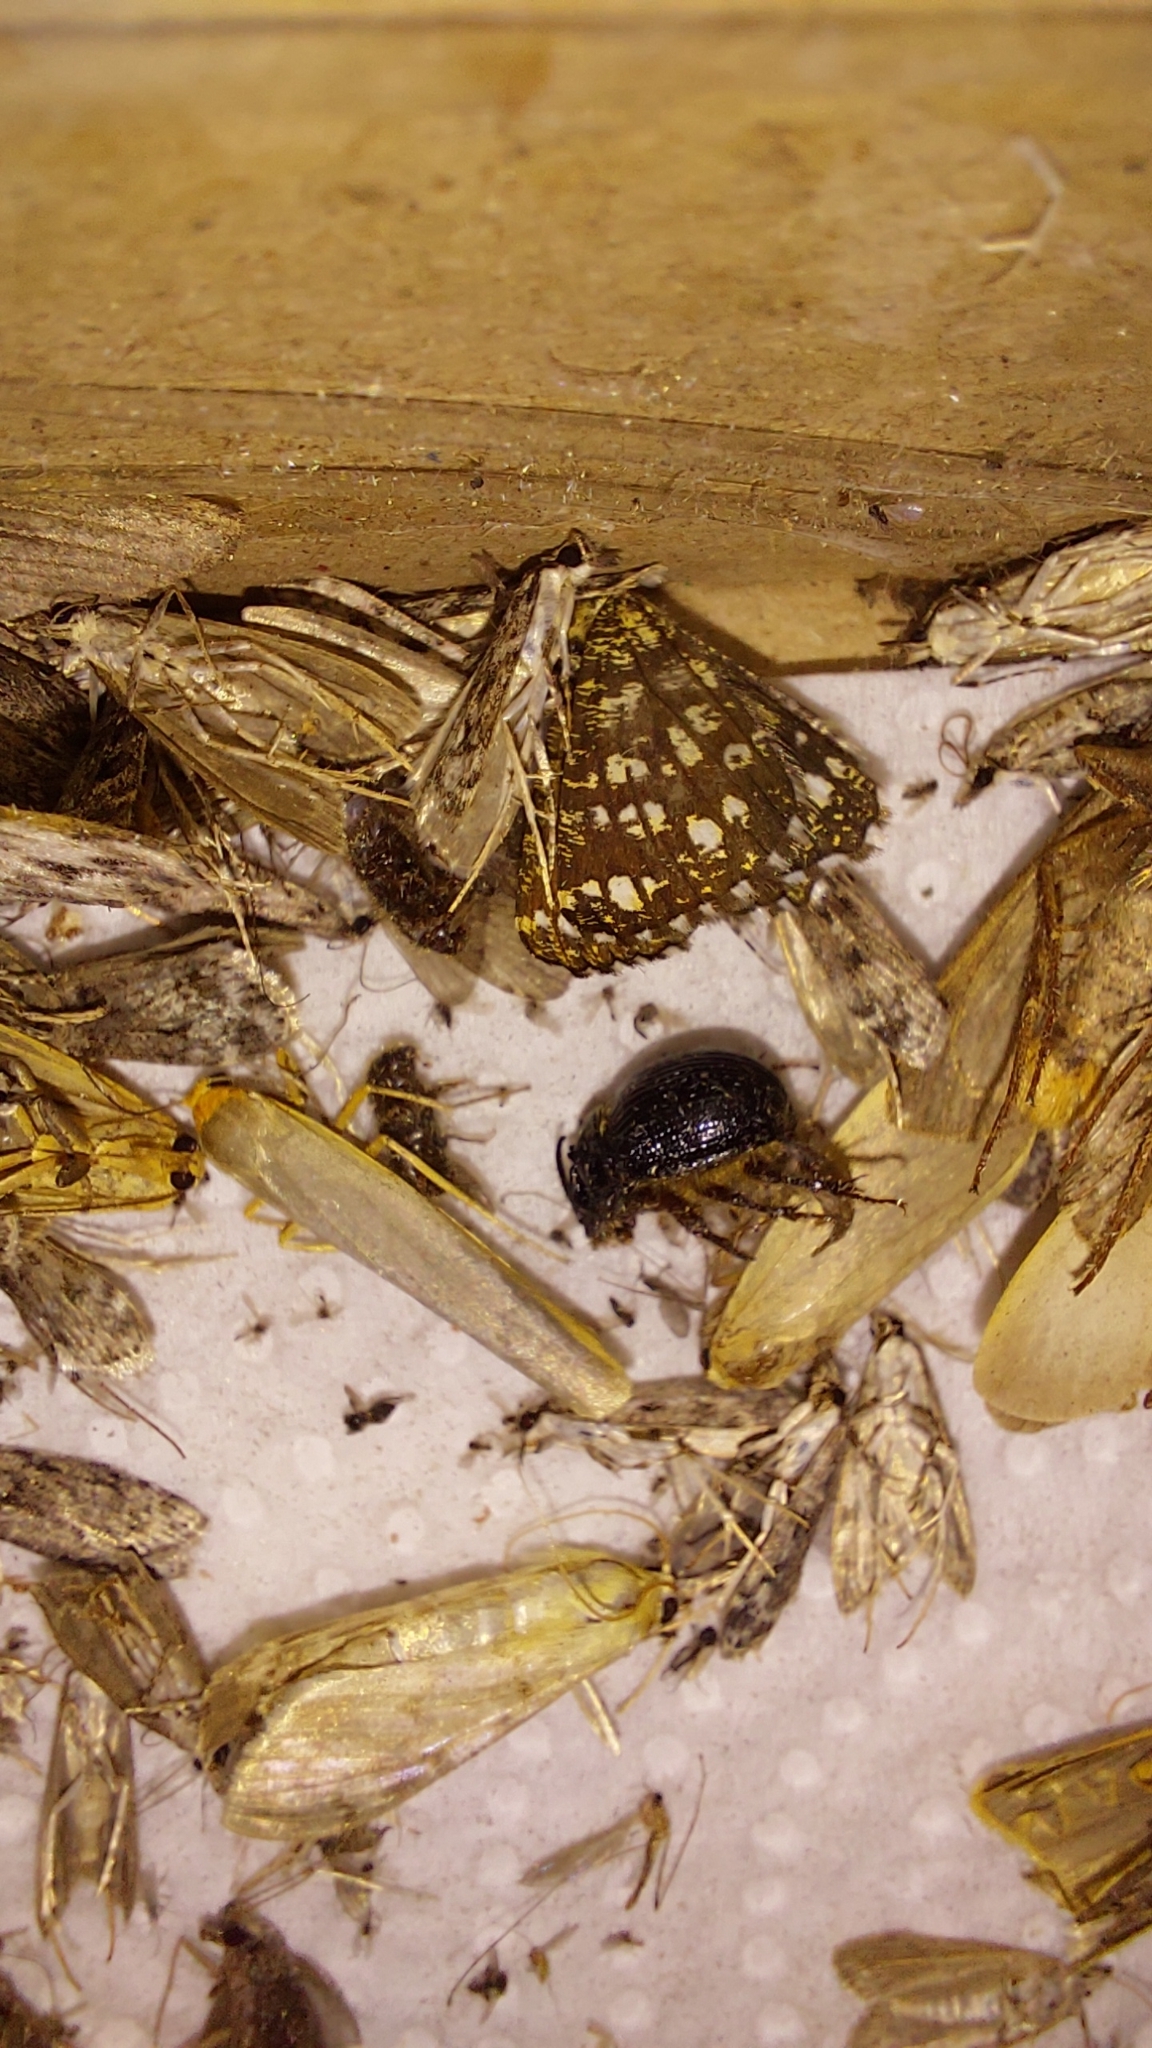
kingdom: Animalia
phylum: Arthropoda
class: Insecta
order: Coleoptera
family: Geotrupidae
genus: Odonteus
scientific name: Odonteus armiger
